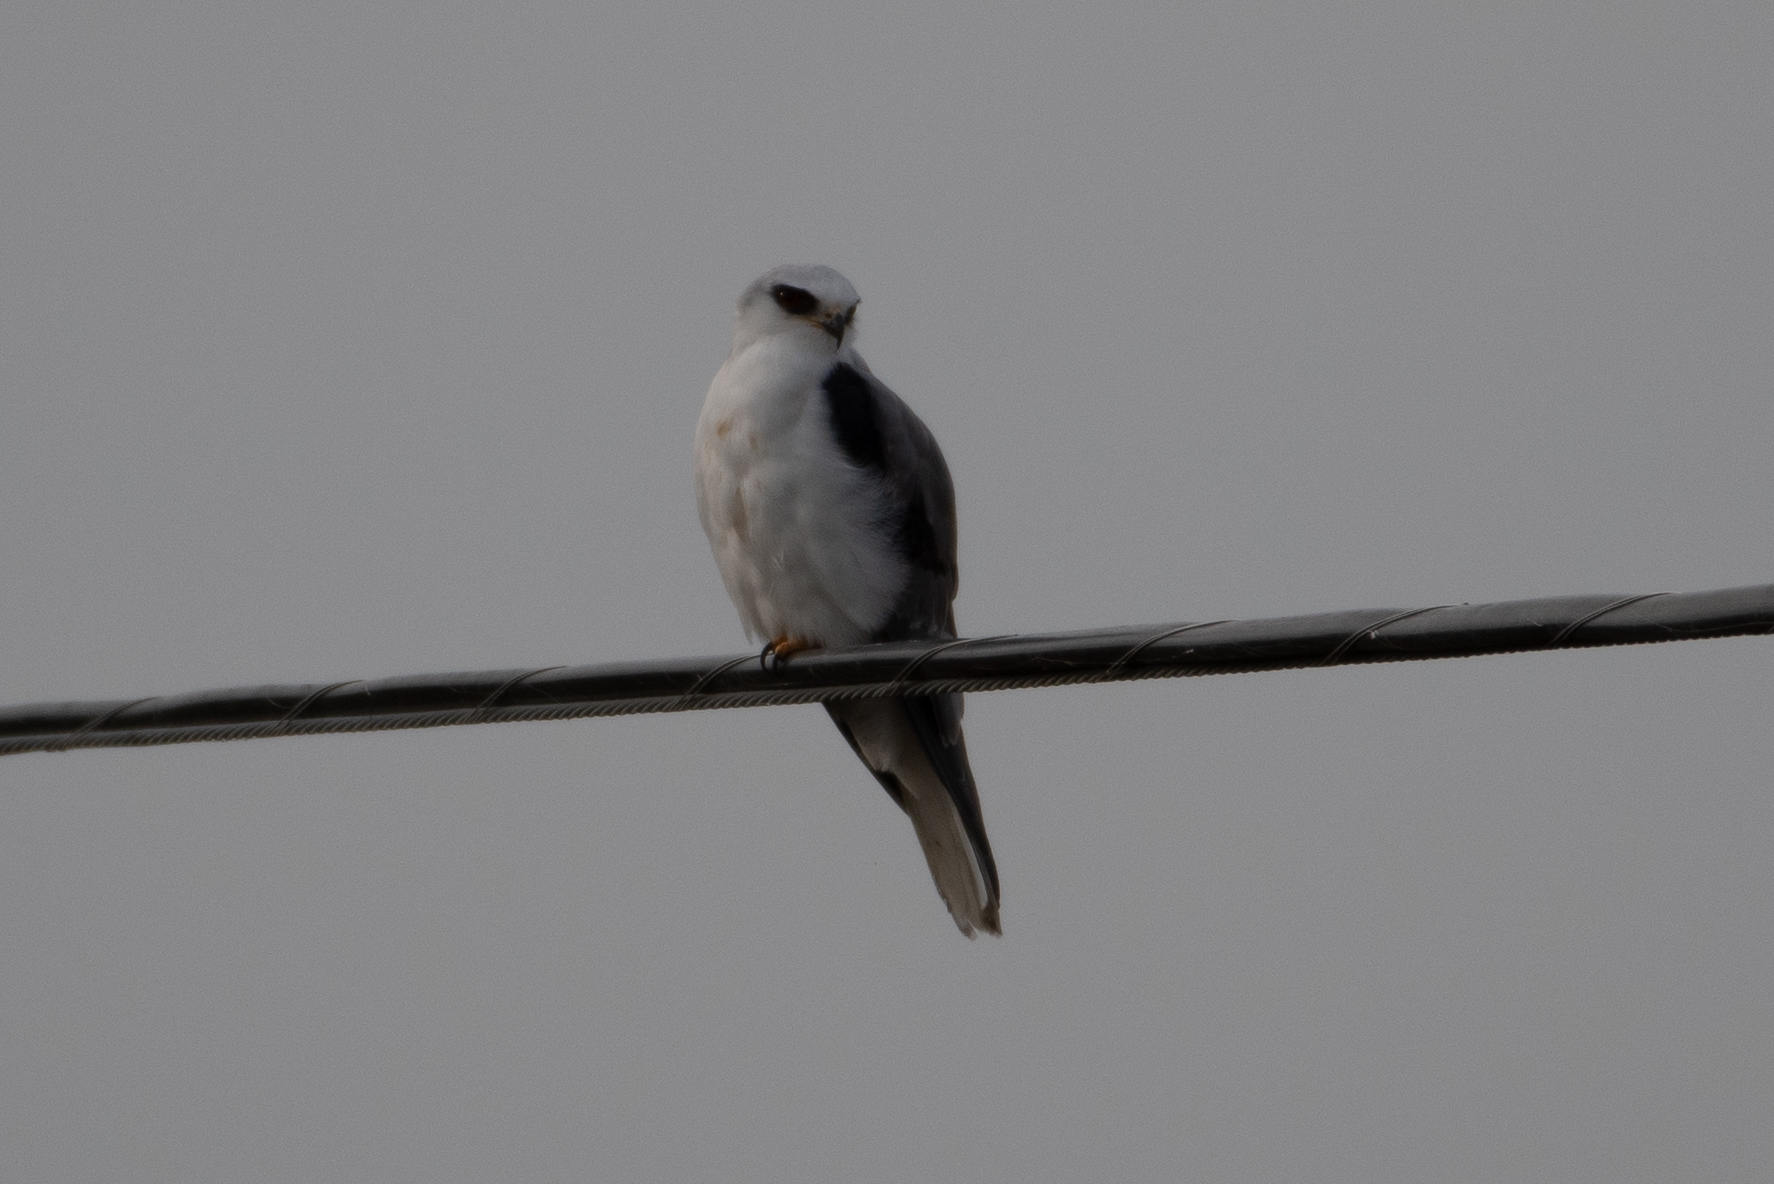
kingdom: Animalia
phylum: Chordata
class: Aves
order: Accipitriformes
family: Accipitridae
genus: Elanus
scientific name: Elanus leucurus
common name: White-tailed kite
